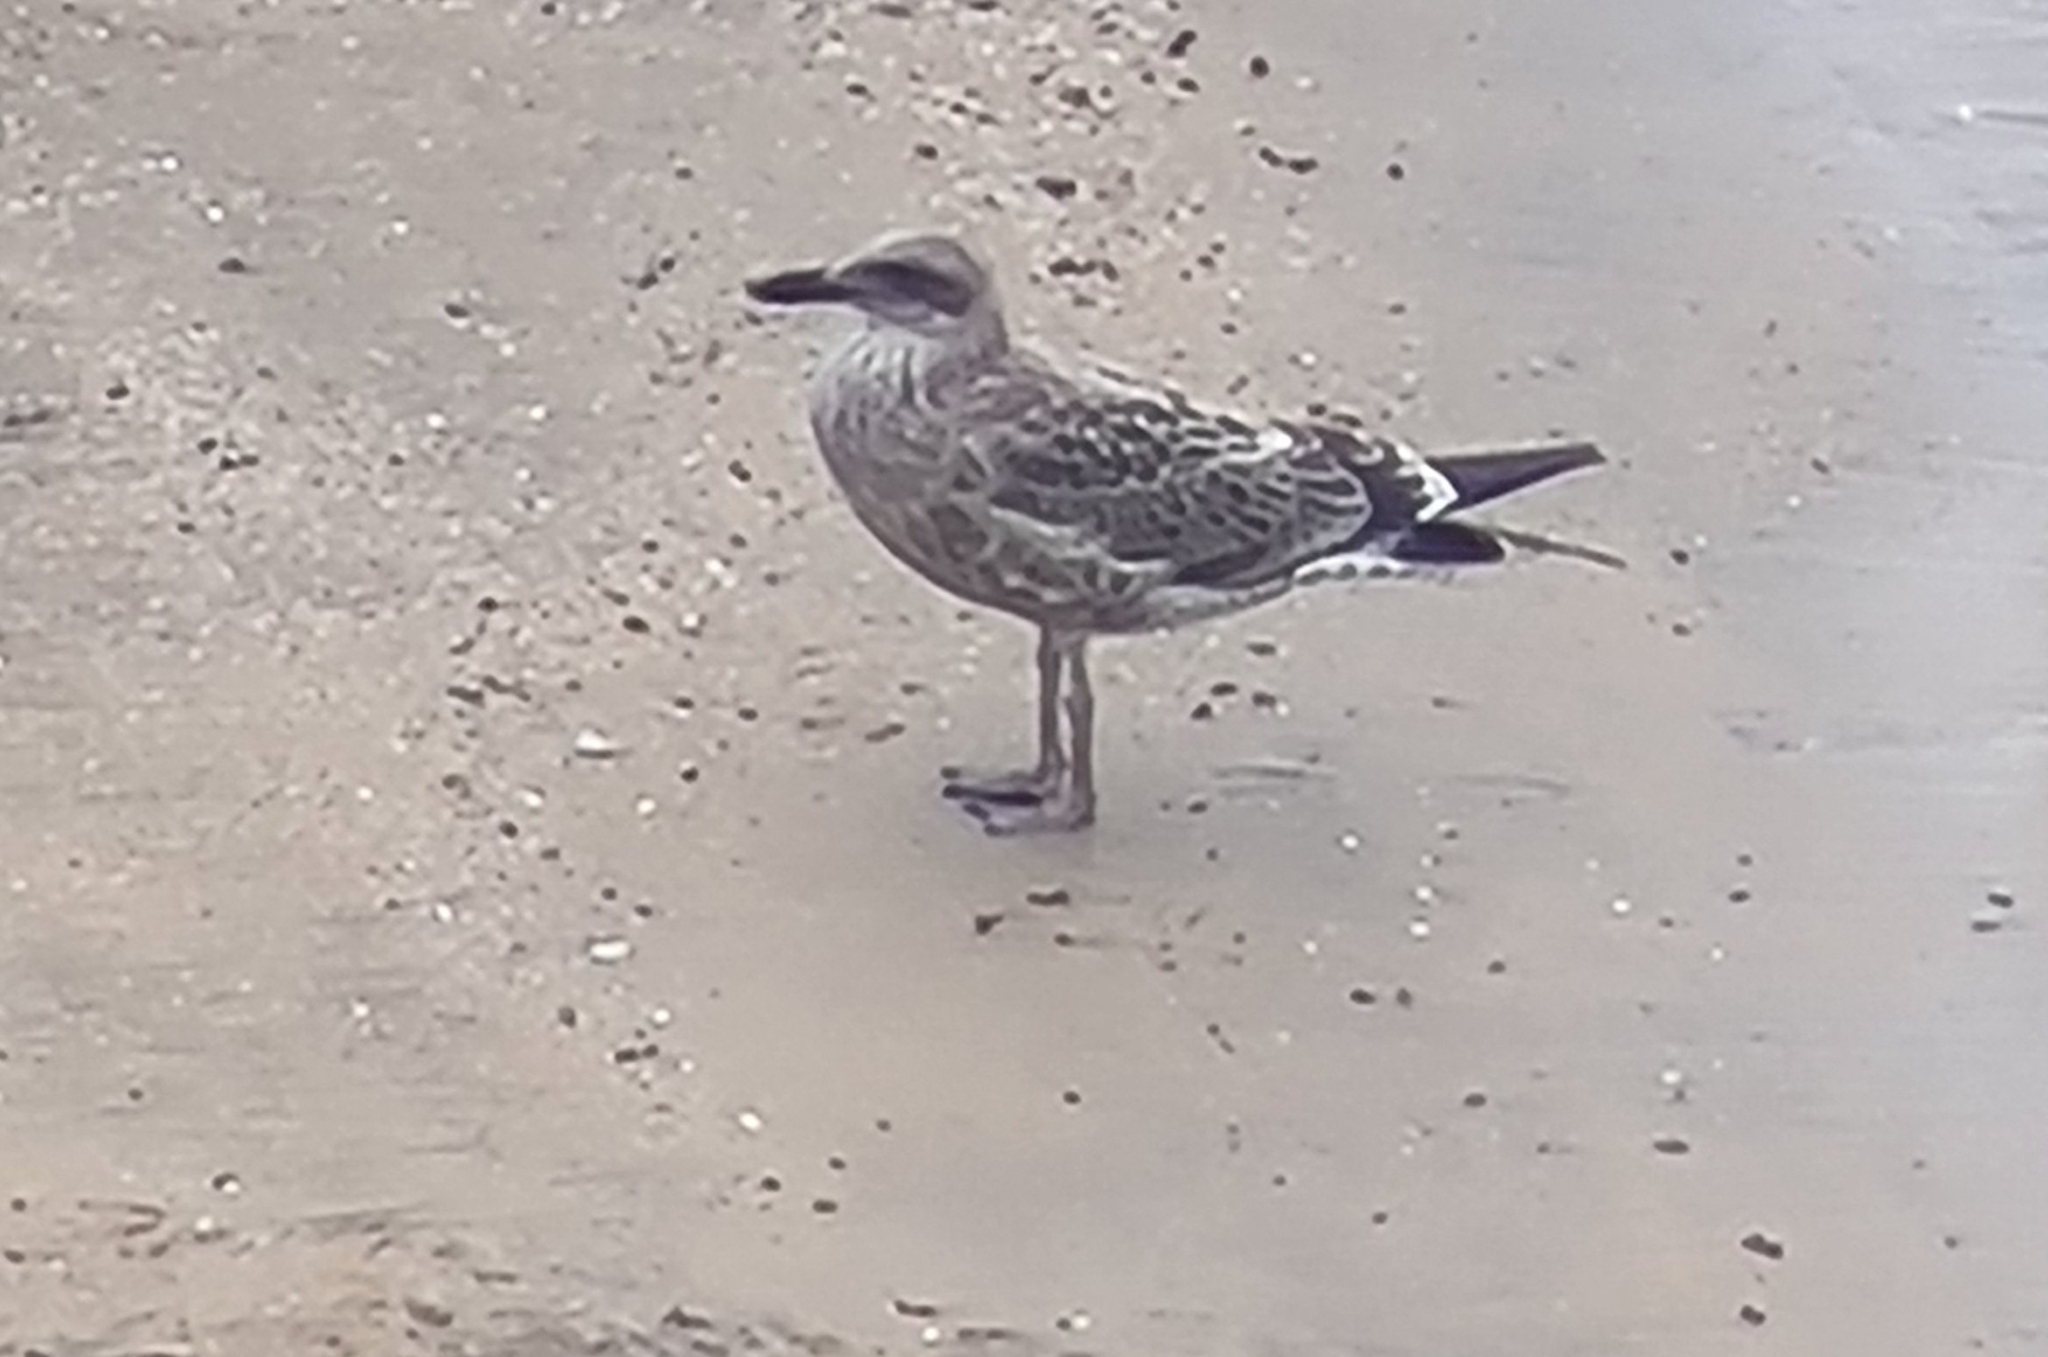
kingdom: Animalia
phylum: Chordata
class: Aves
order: Charadriiformes
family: Laridae
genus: Larus
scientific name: Larus dominicanus
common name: Kelp gull
